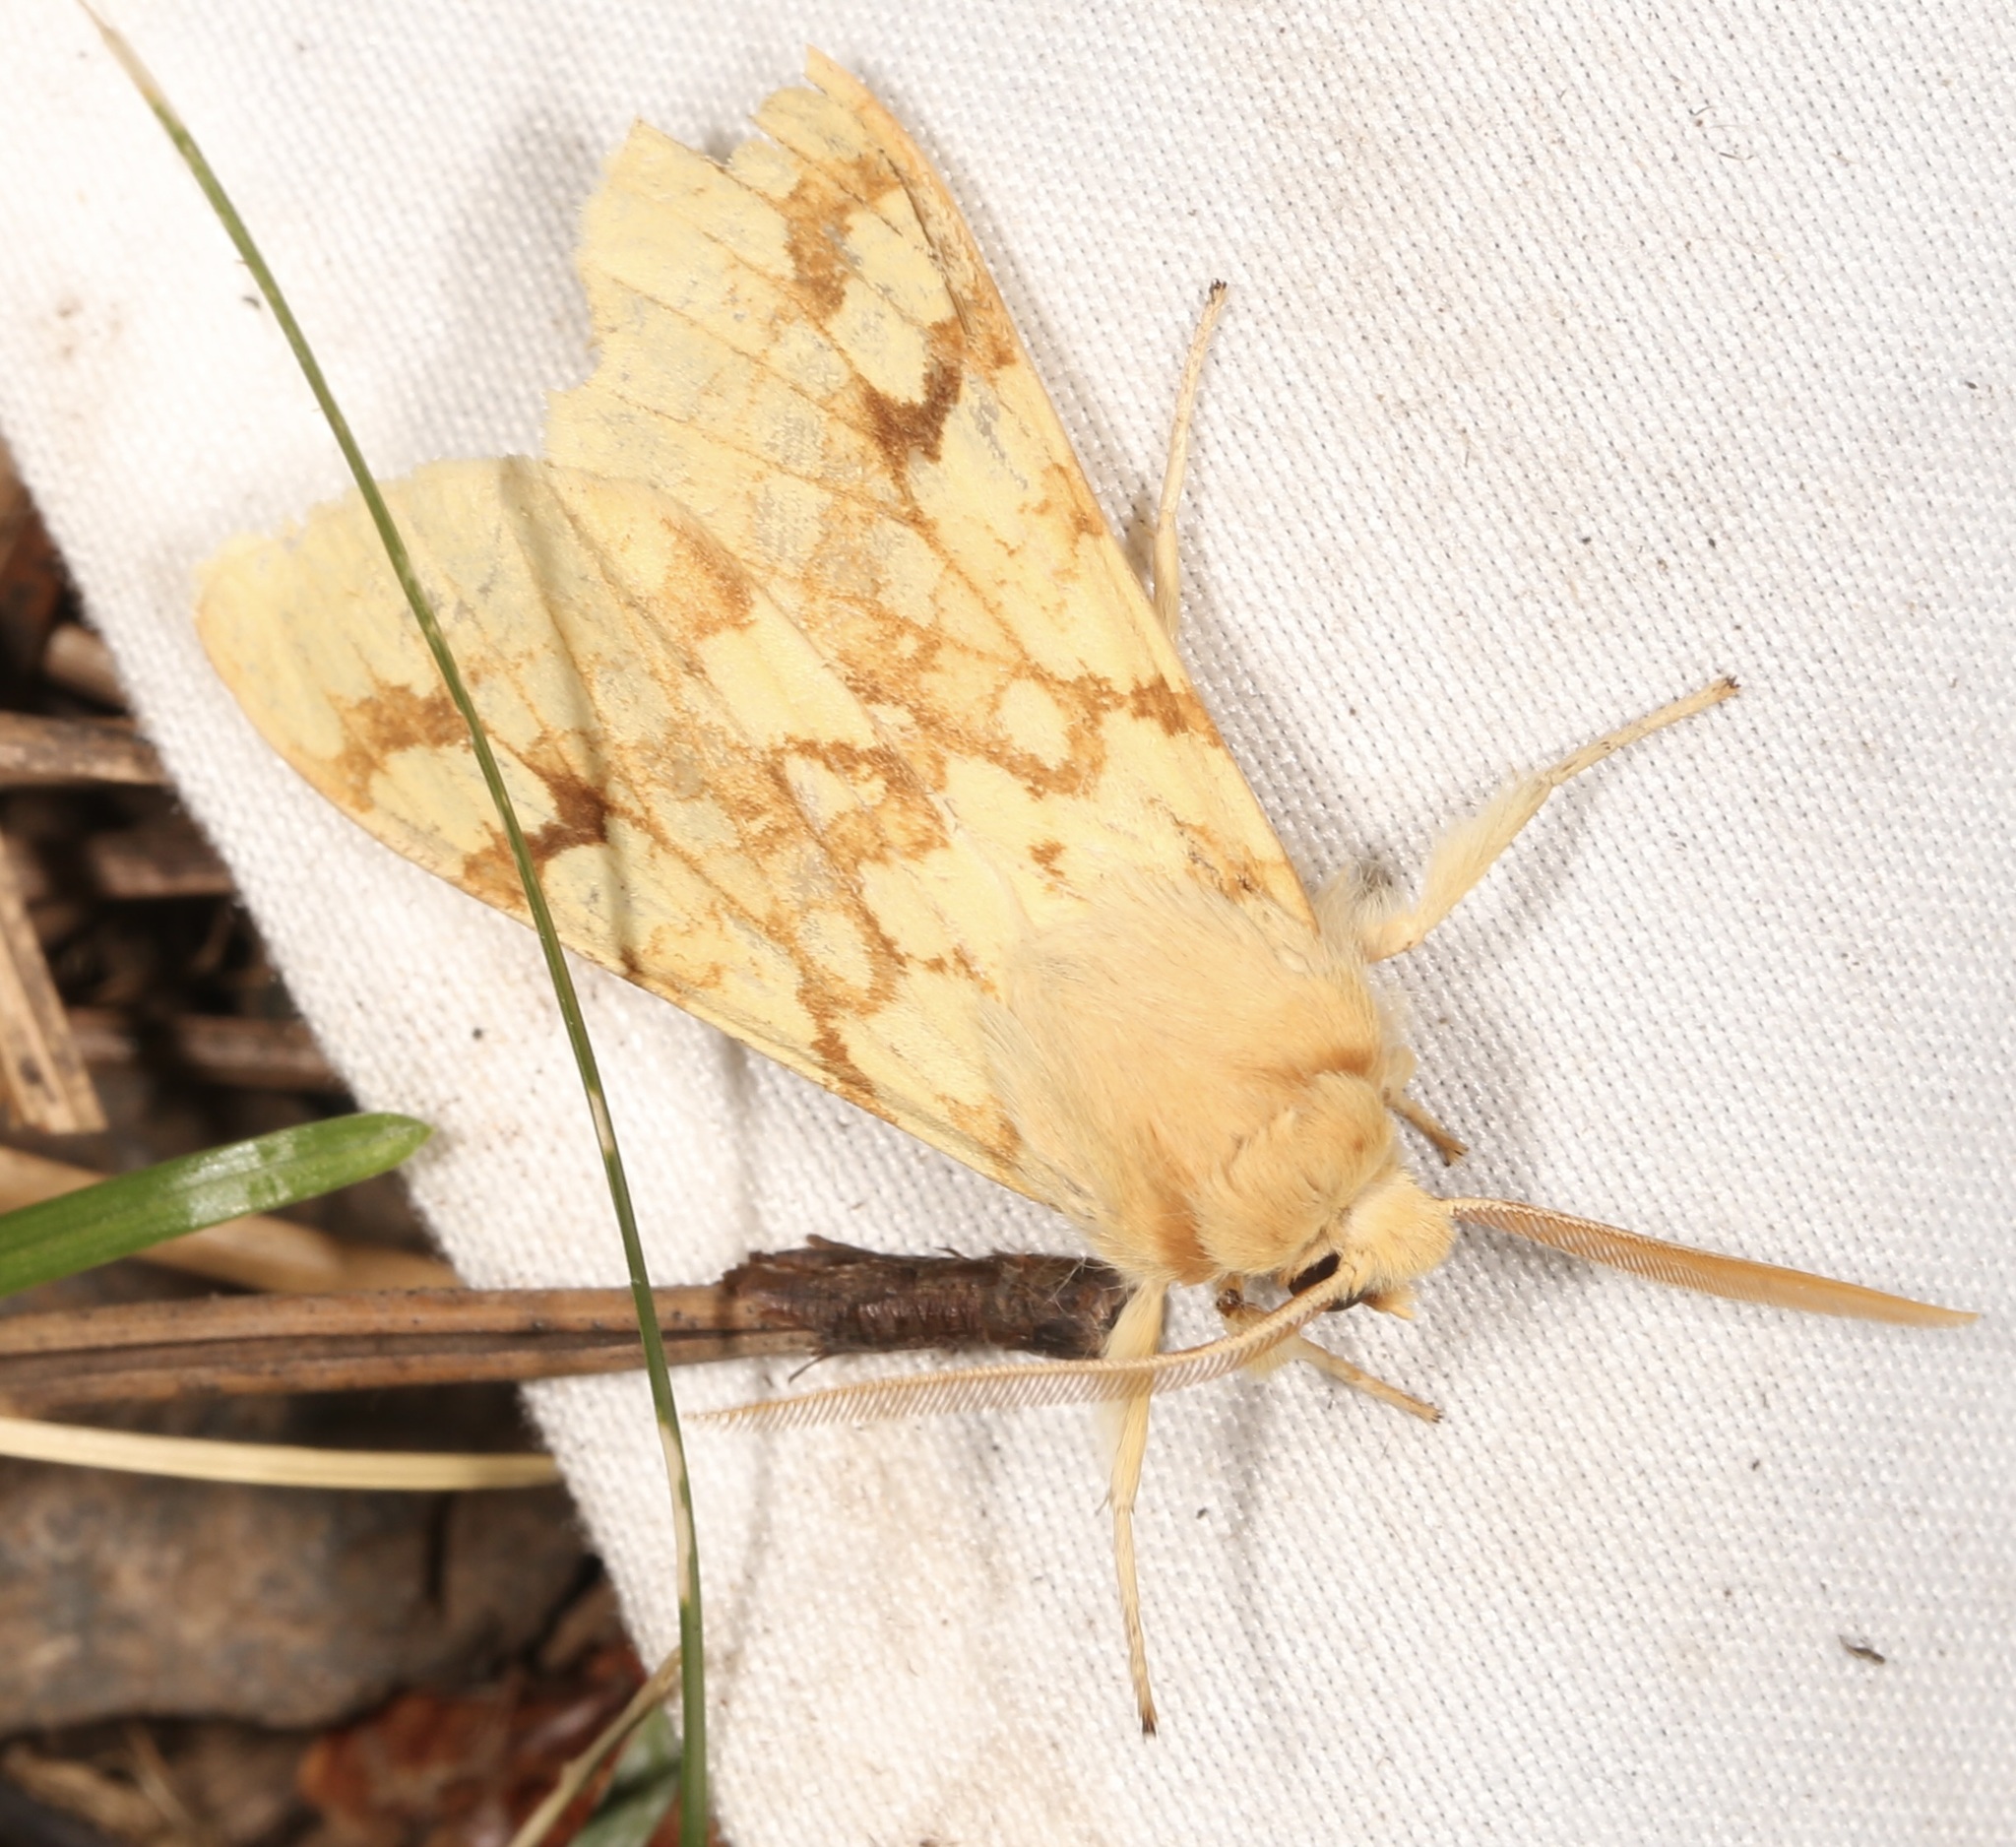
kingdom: Animalia
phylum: Arthropoda
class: Insecta
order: Lepidoptera
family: Erebidae
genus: Lophocampa
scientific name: Lophocampa maculata
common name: Spotted tussock moth
